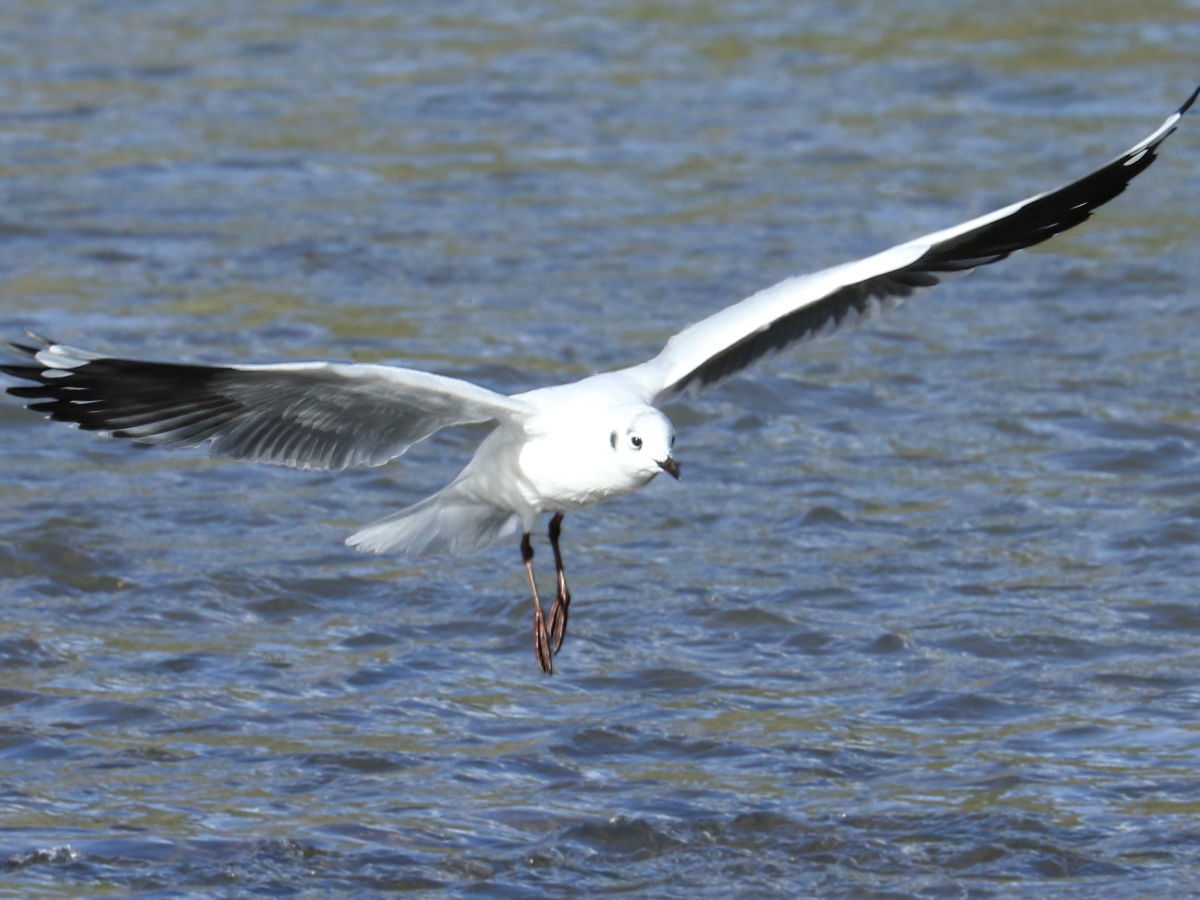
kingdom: Animalia
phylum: Chordata
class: Aves
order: Charadriiformes
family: Laridae
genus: Chroicocephalus
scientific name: Chroicocephalus serranus
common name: Andean gull
